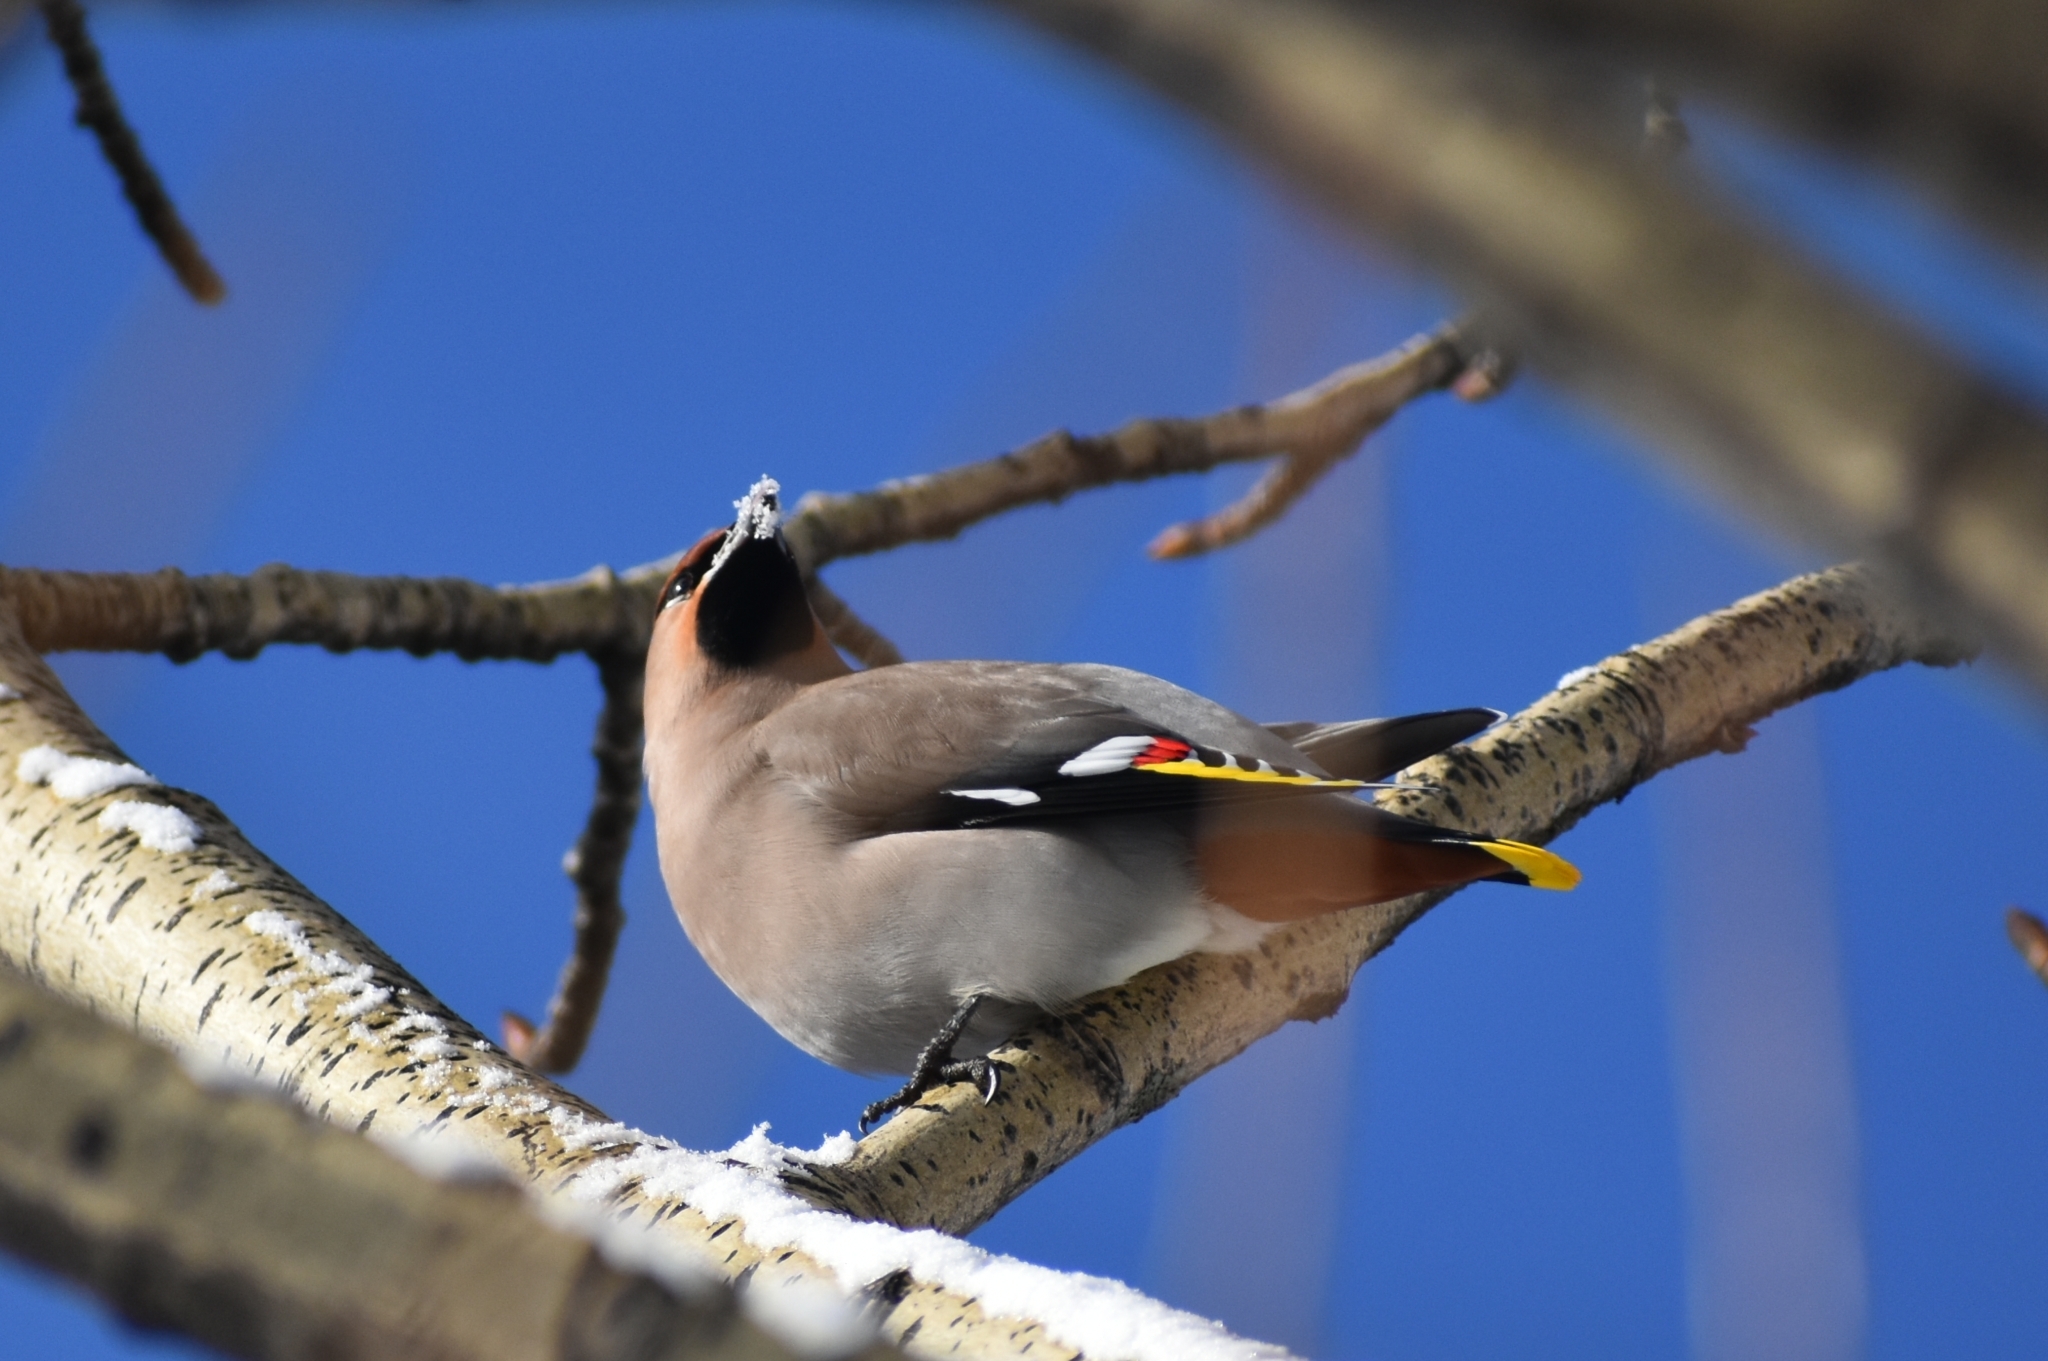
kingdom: Animalia
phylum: Chordata
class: Aves
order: Passeriformes
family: Bombycillidae
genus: Bombycilla
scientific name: Bombycilla garrulus
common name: Bohemian waxwing
